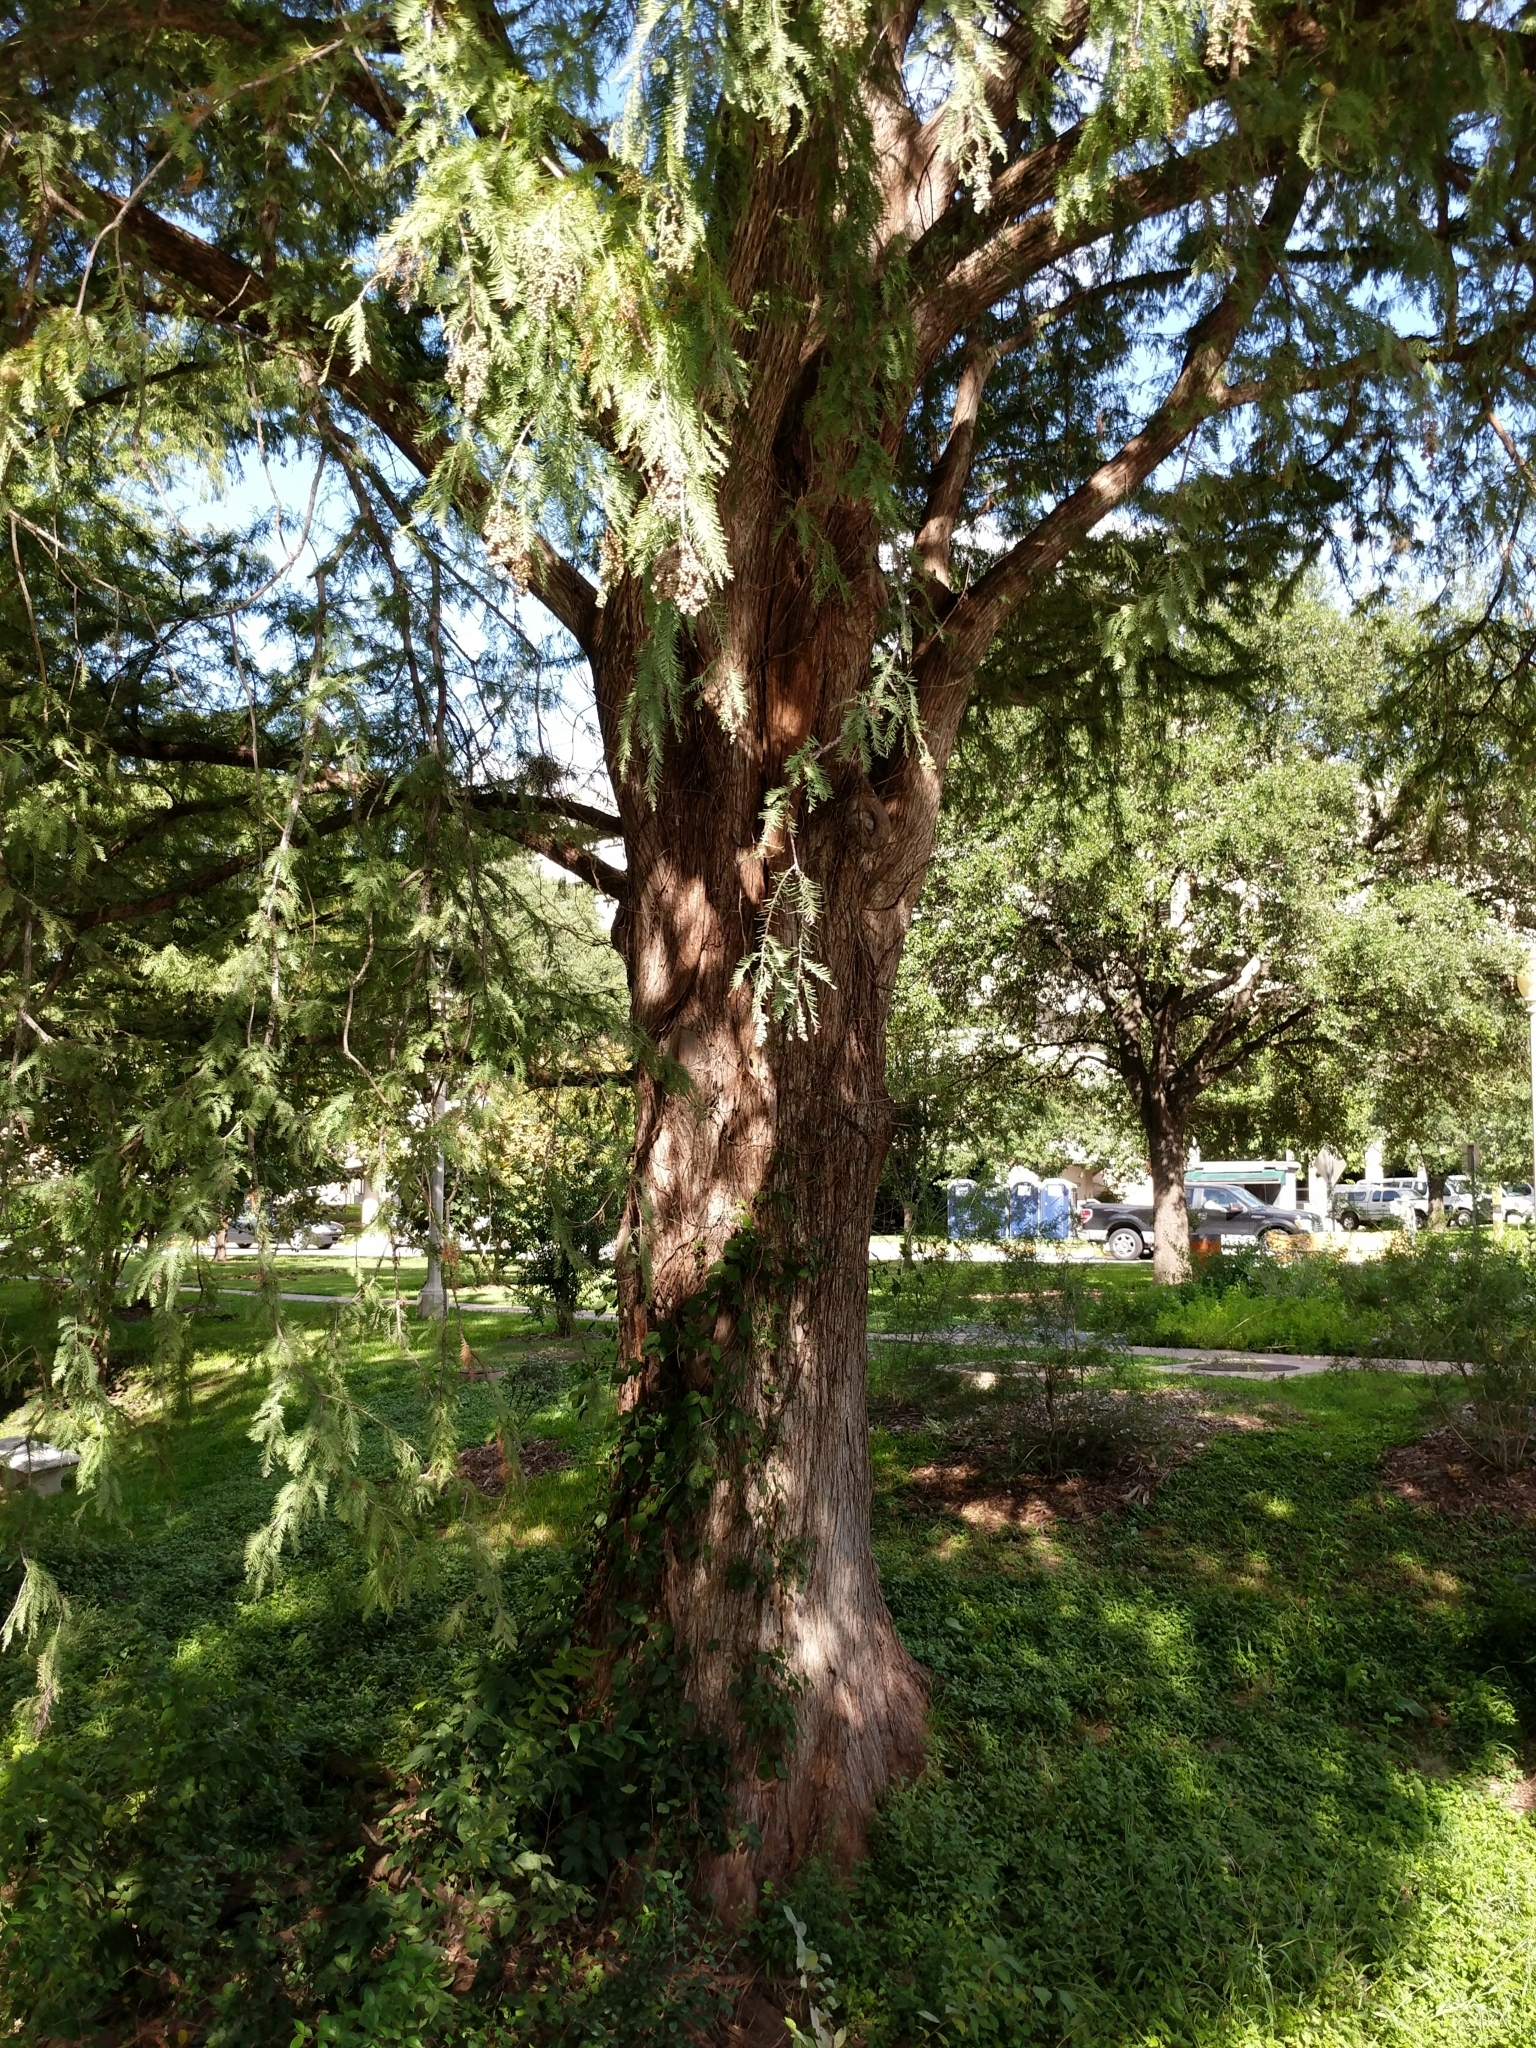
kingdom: Plantae
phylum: Tracheophyta
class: Pinopsida
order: Pinales
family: Cupressaceae
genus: Taxodium
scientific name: Taxodium distichum
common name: Bald cypress
